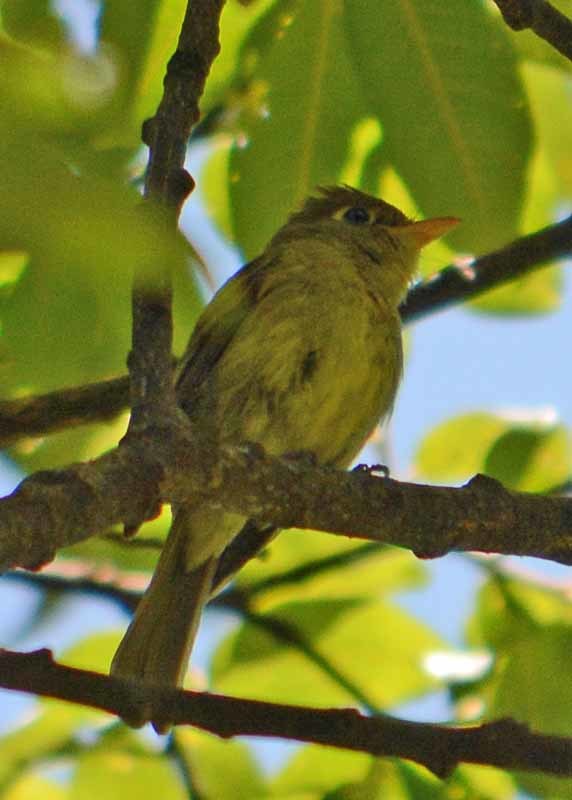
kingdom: Animalia
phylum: Chordata
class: Aves
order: Passeriformes
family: Tyrannidae
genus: Empidonax
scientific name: Empidonax difficilis
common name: Pacific-slope flycatcher
